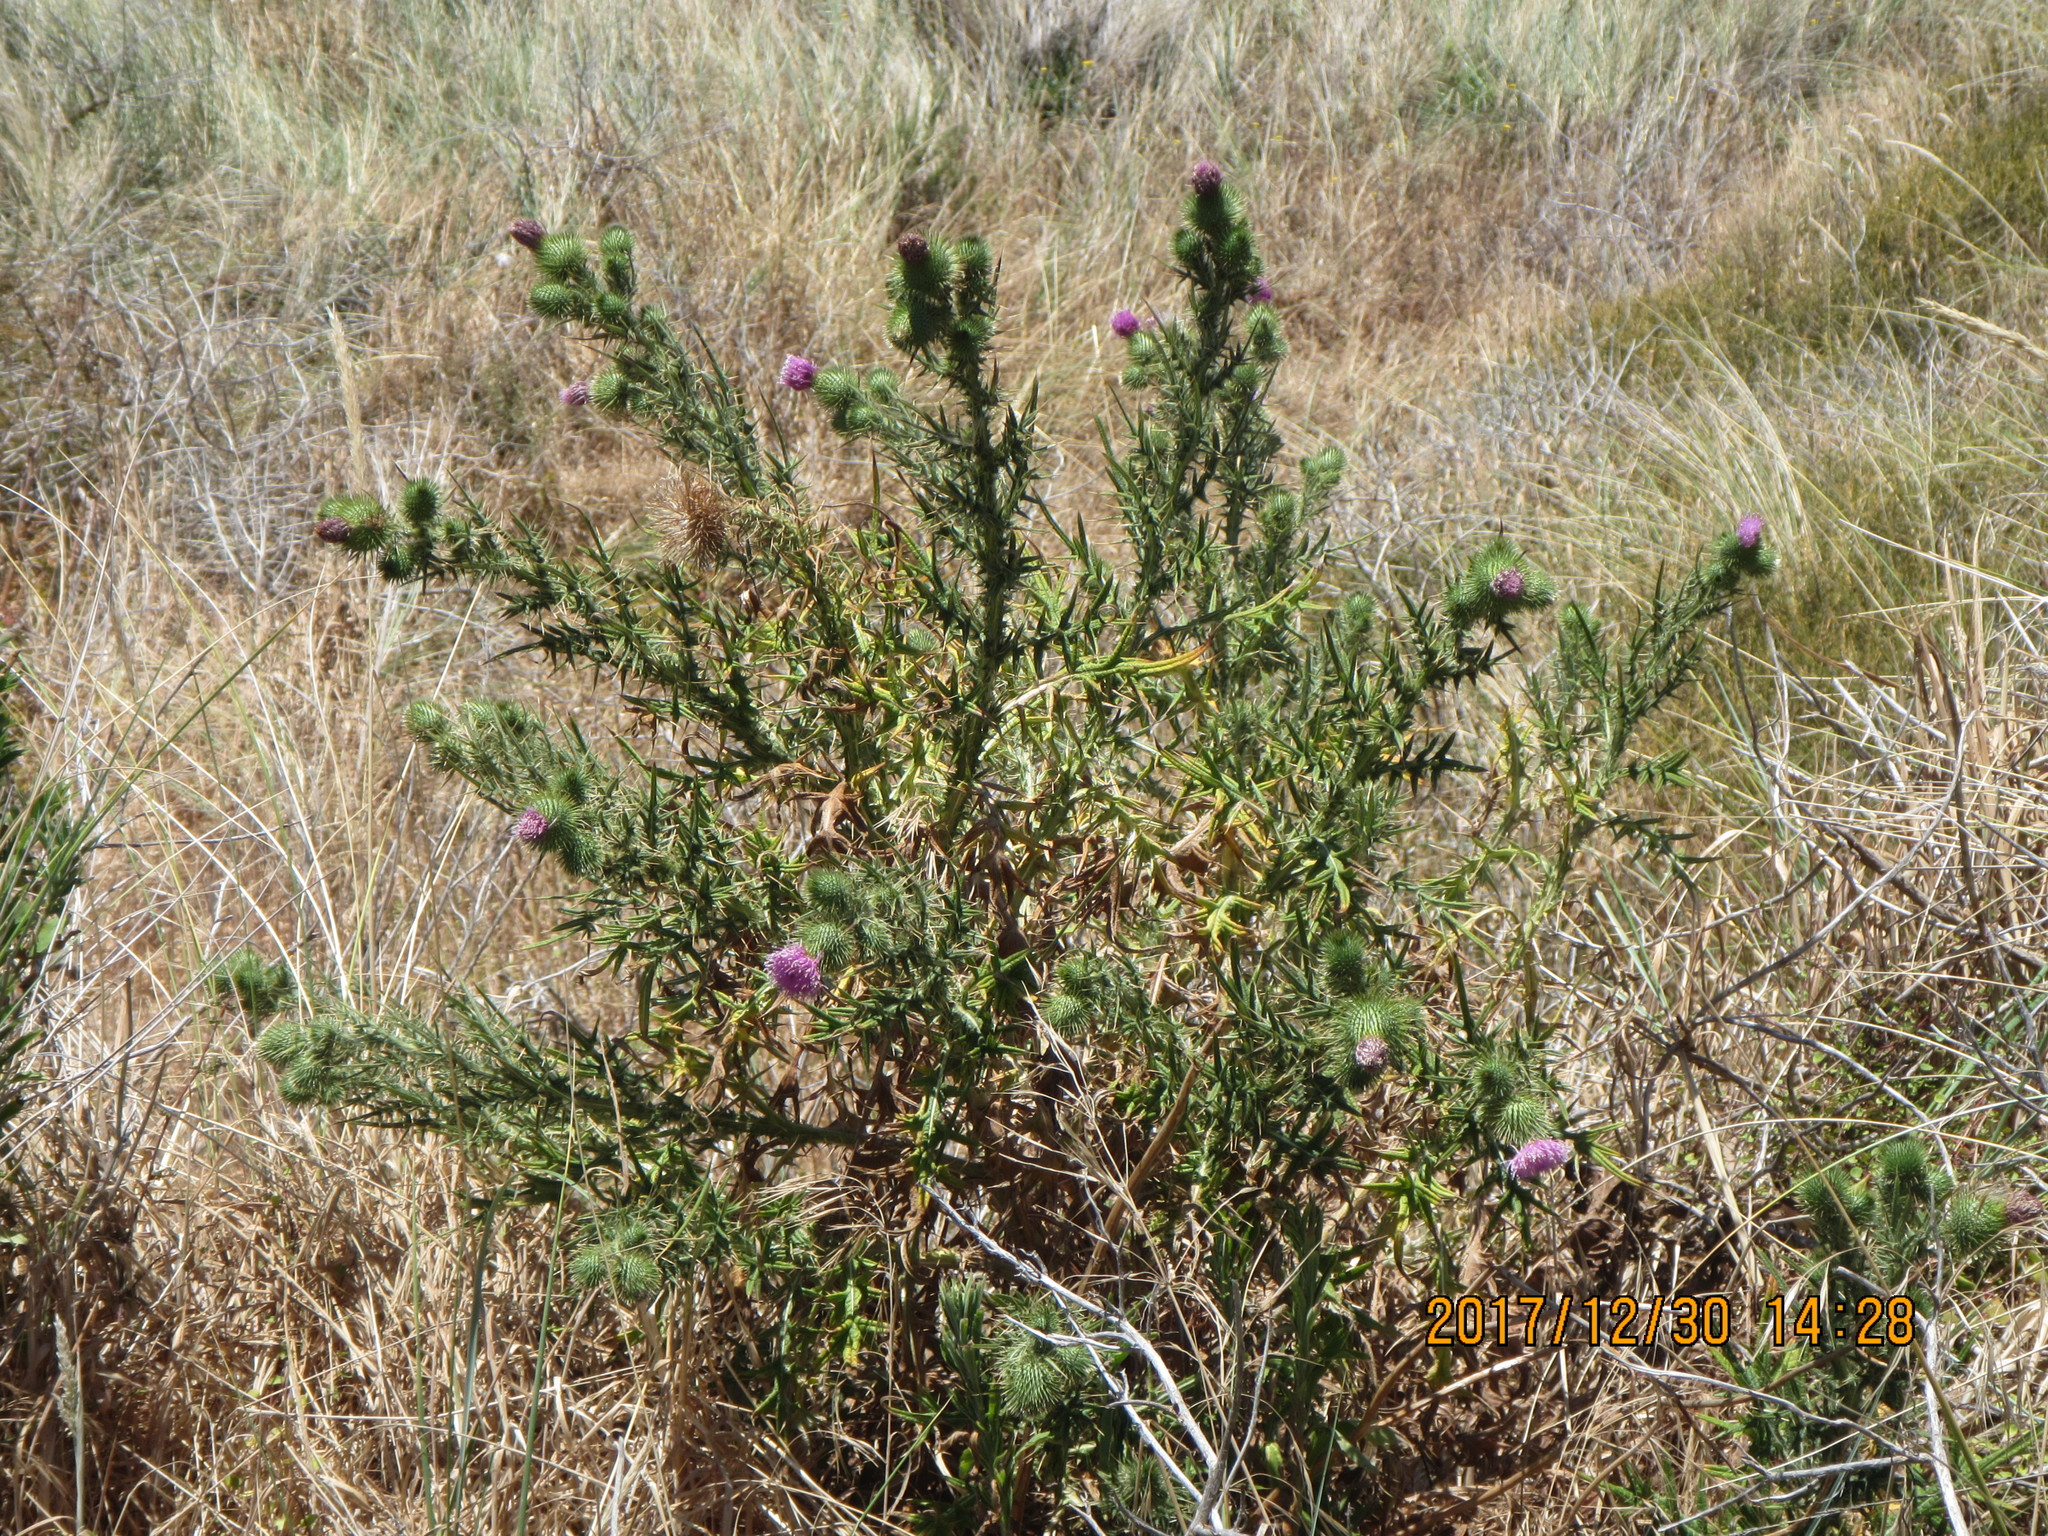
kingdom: Plantae
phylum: Tracheophyta
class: Magnoliopsida
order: Asterales
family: Asteraceae
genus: Cirsium
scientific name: Cirsium vulgare
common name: Bull thistle
